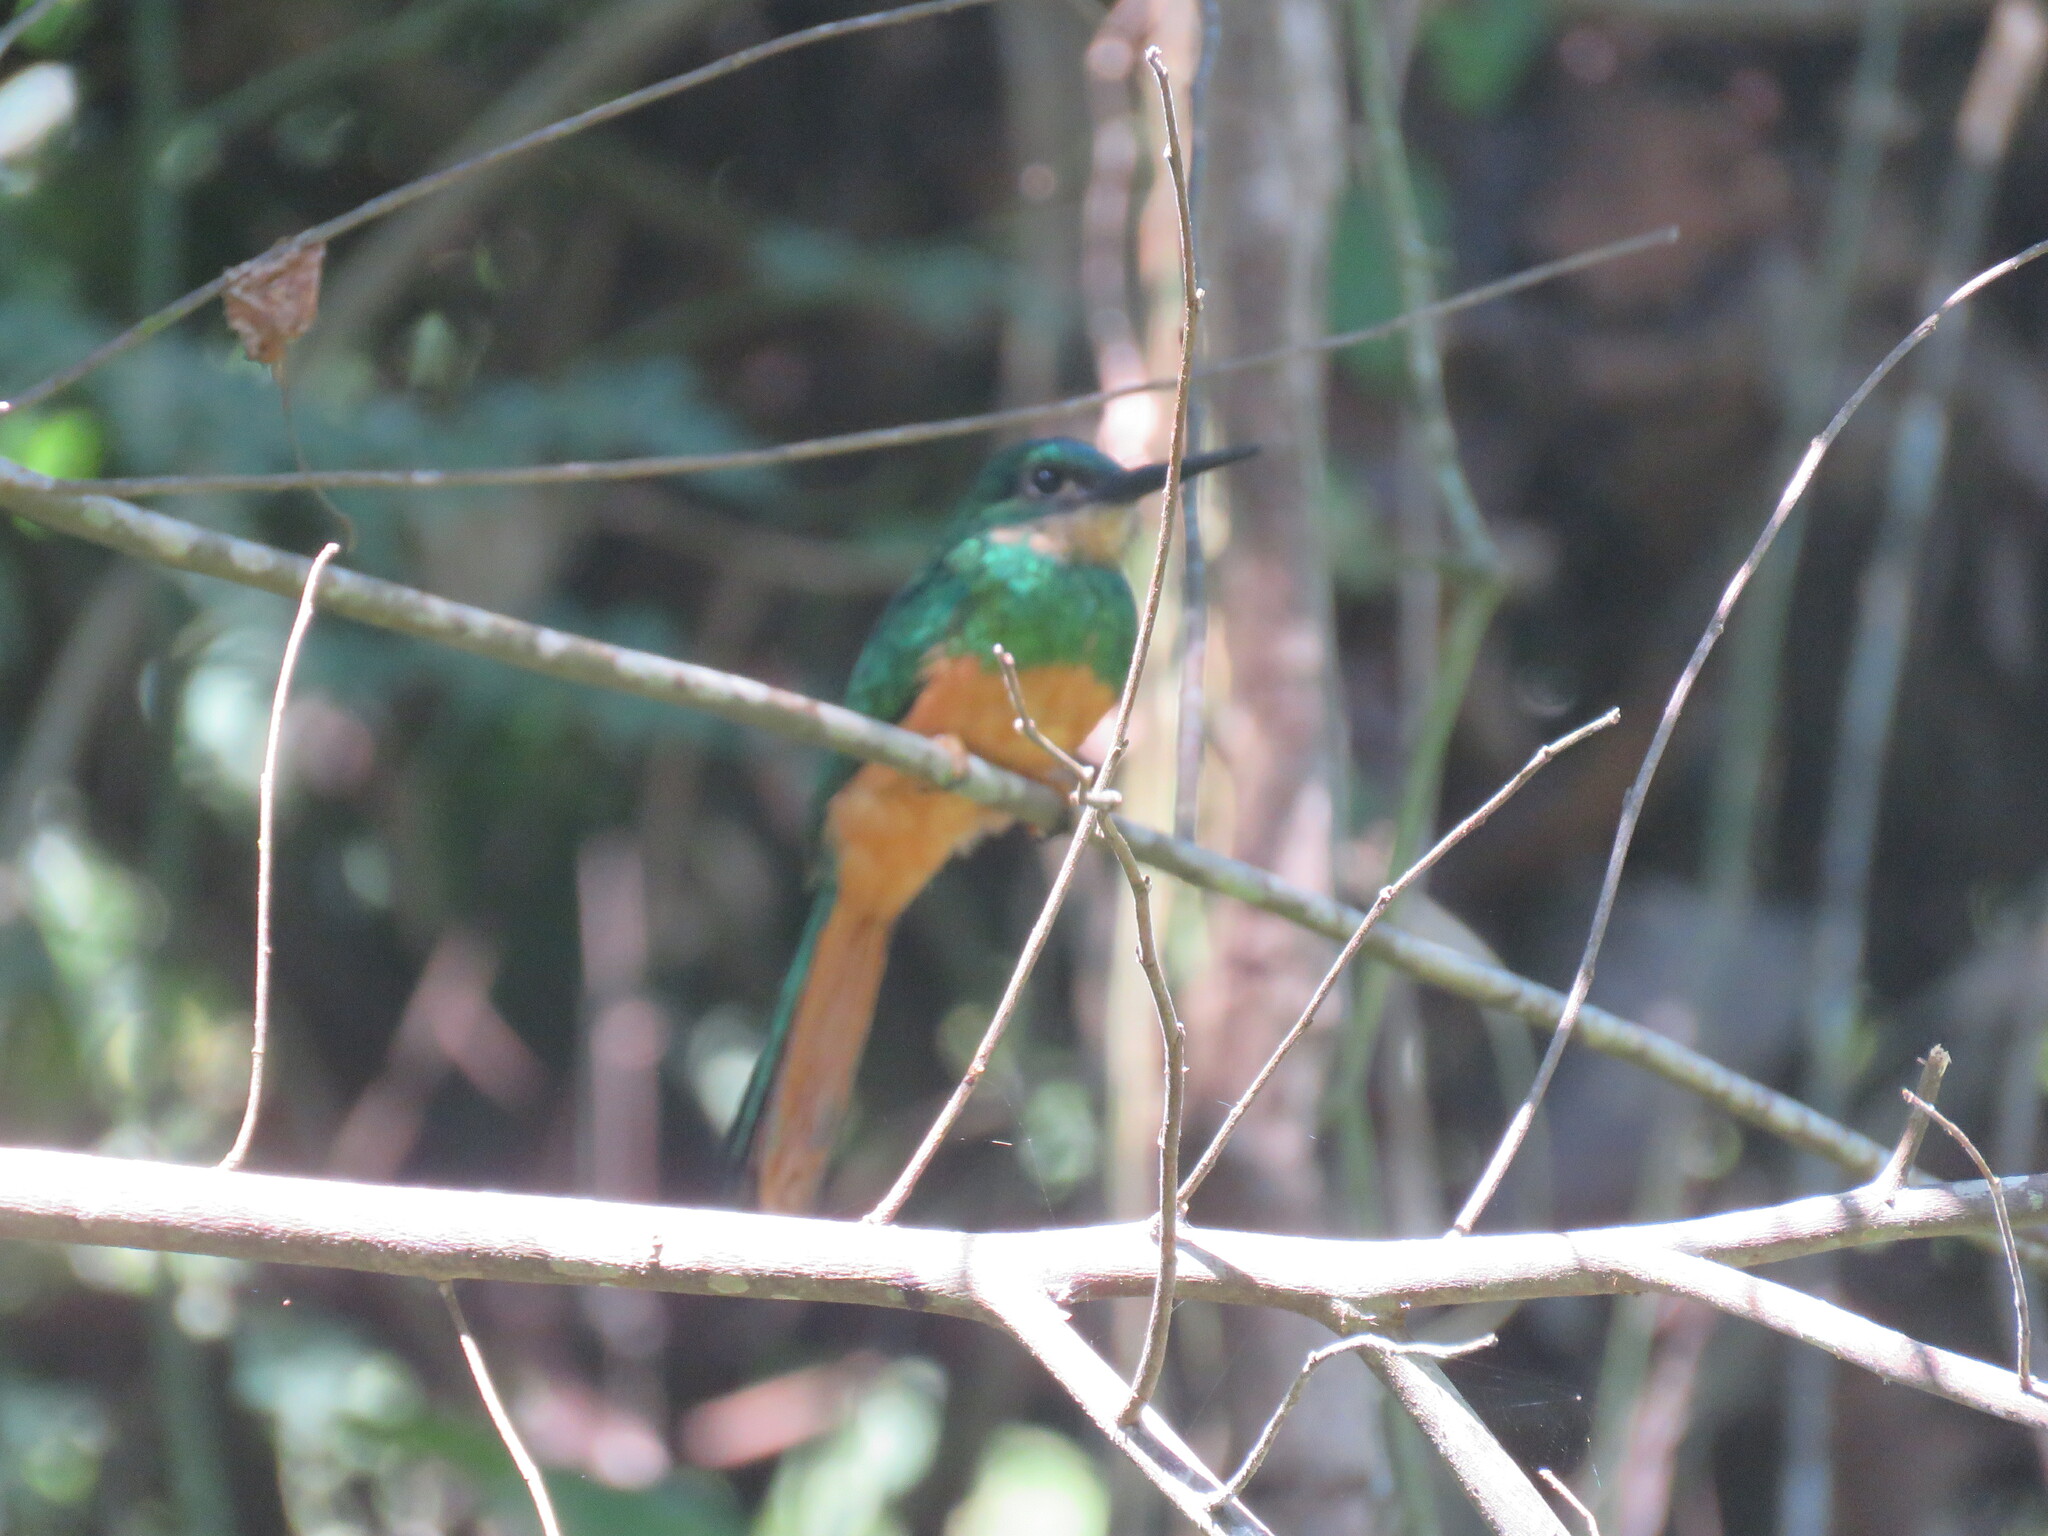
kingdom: Animalia
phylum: Chordata
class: Aves
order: Piciformes
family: Galbulidae
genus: Galbula
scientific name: Galbula ruficauda
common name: Rufous-tailed jacamar
